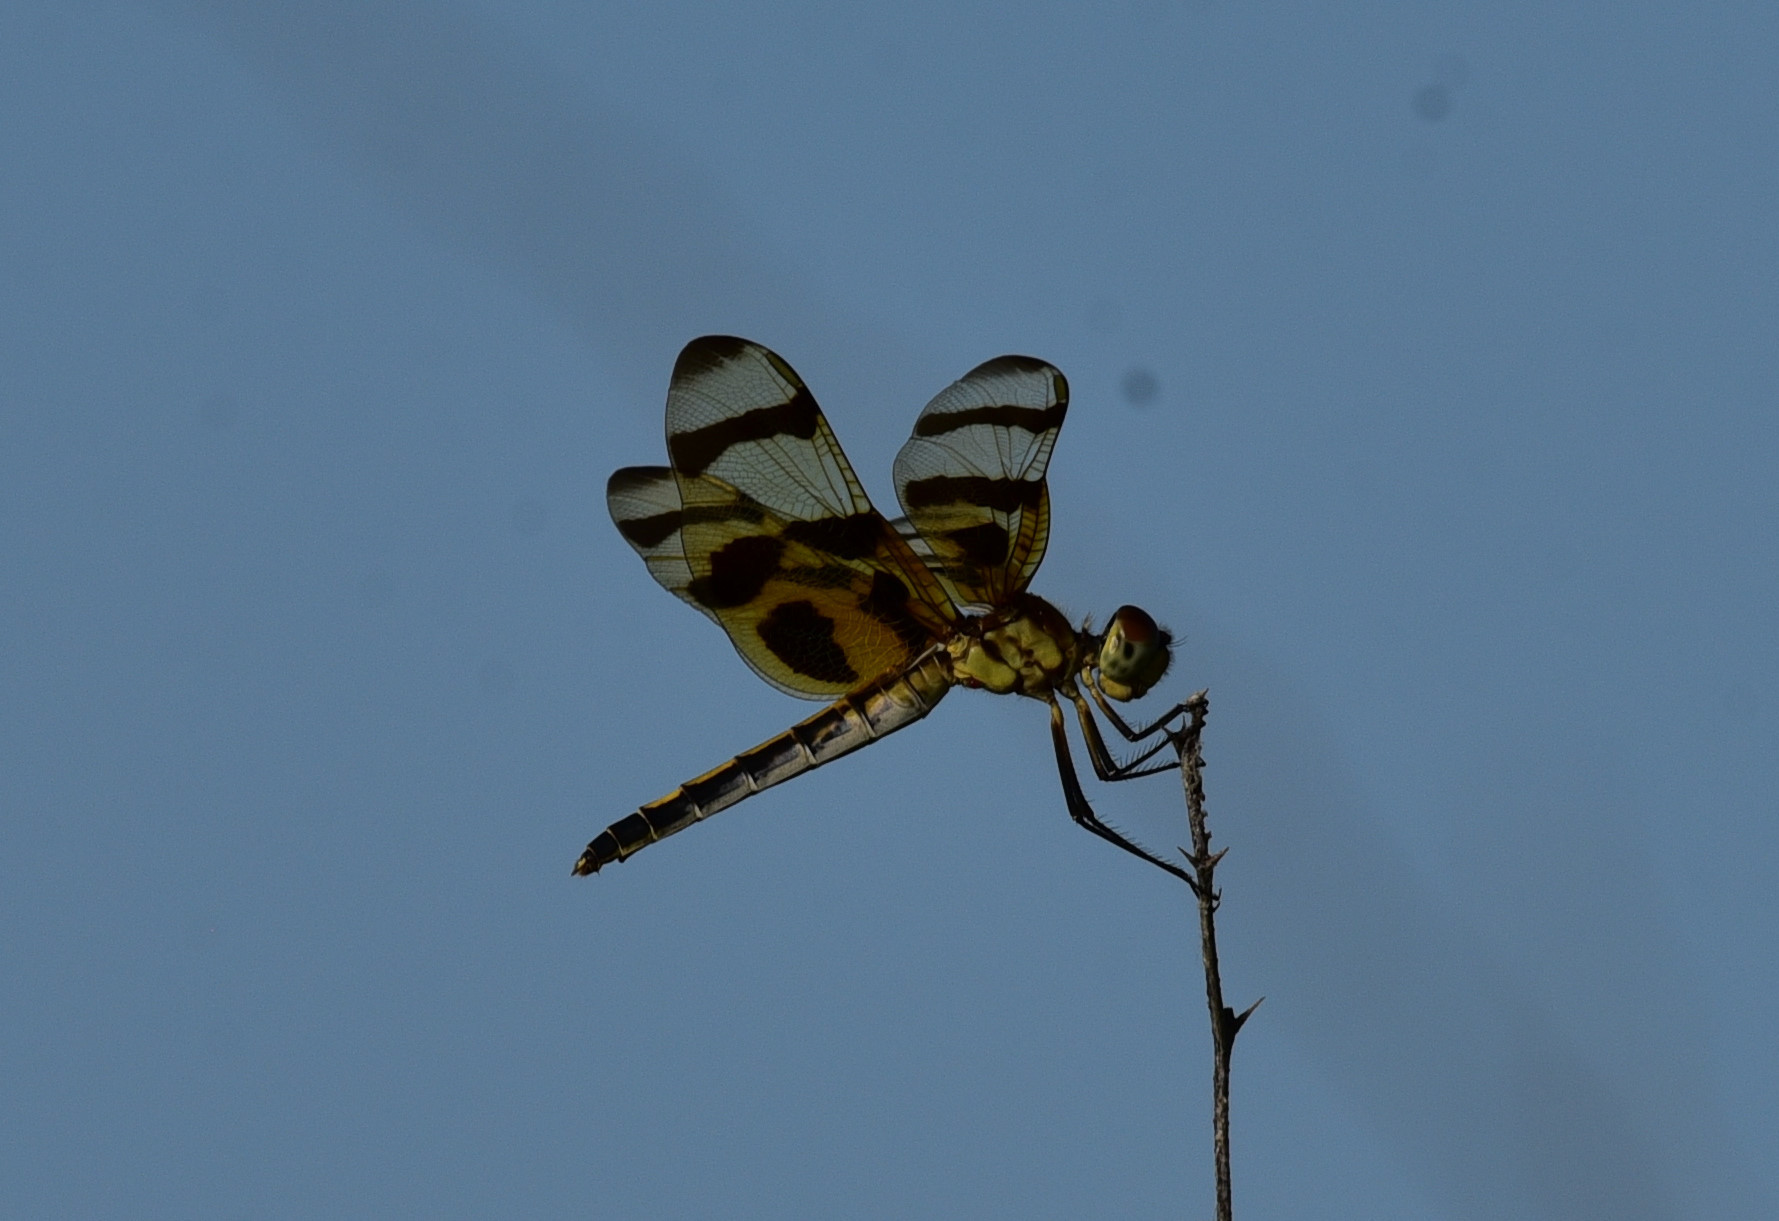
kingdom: Animalia
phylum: Arthropoda
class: Insecta
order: Odonata
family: Libellulidae
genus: Celithemis
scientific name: Celithemis eponina
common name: Halloween pennant
